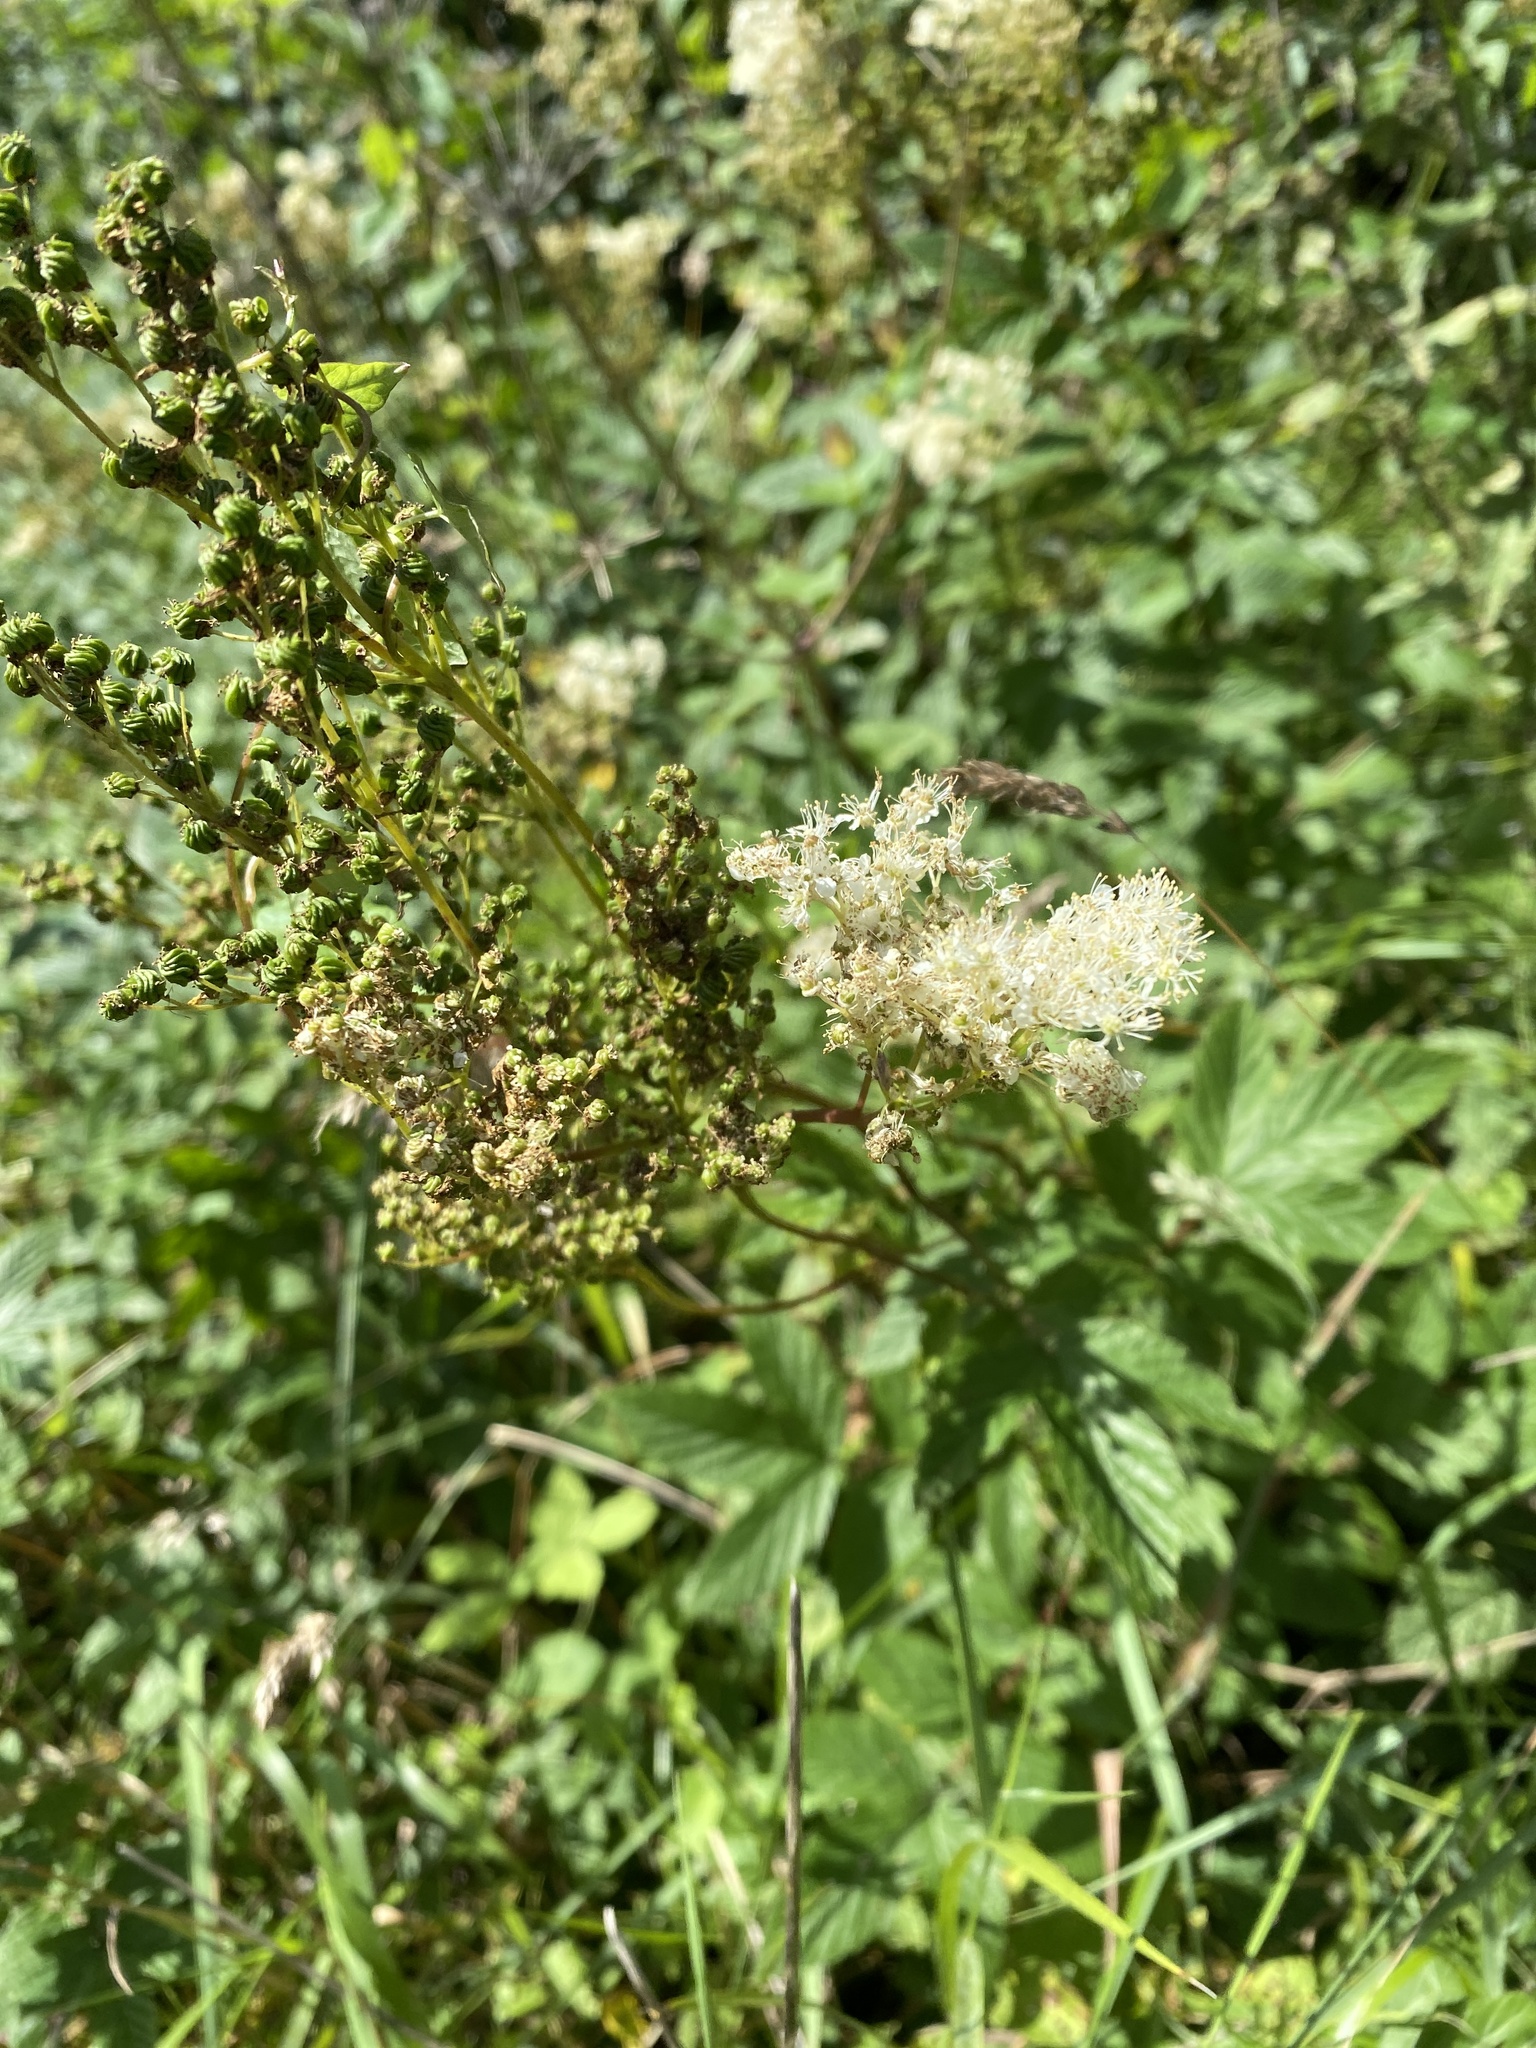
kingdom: Plantae
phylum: Tracheophyta
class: Magnoliopsida
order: Rosales
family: Rosaceae
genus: Filipendula
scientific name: Filipendula ulmaria
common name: Meadowsweet
